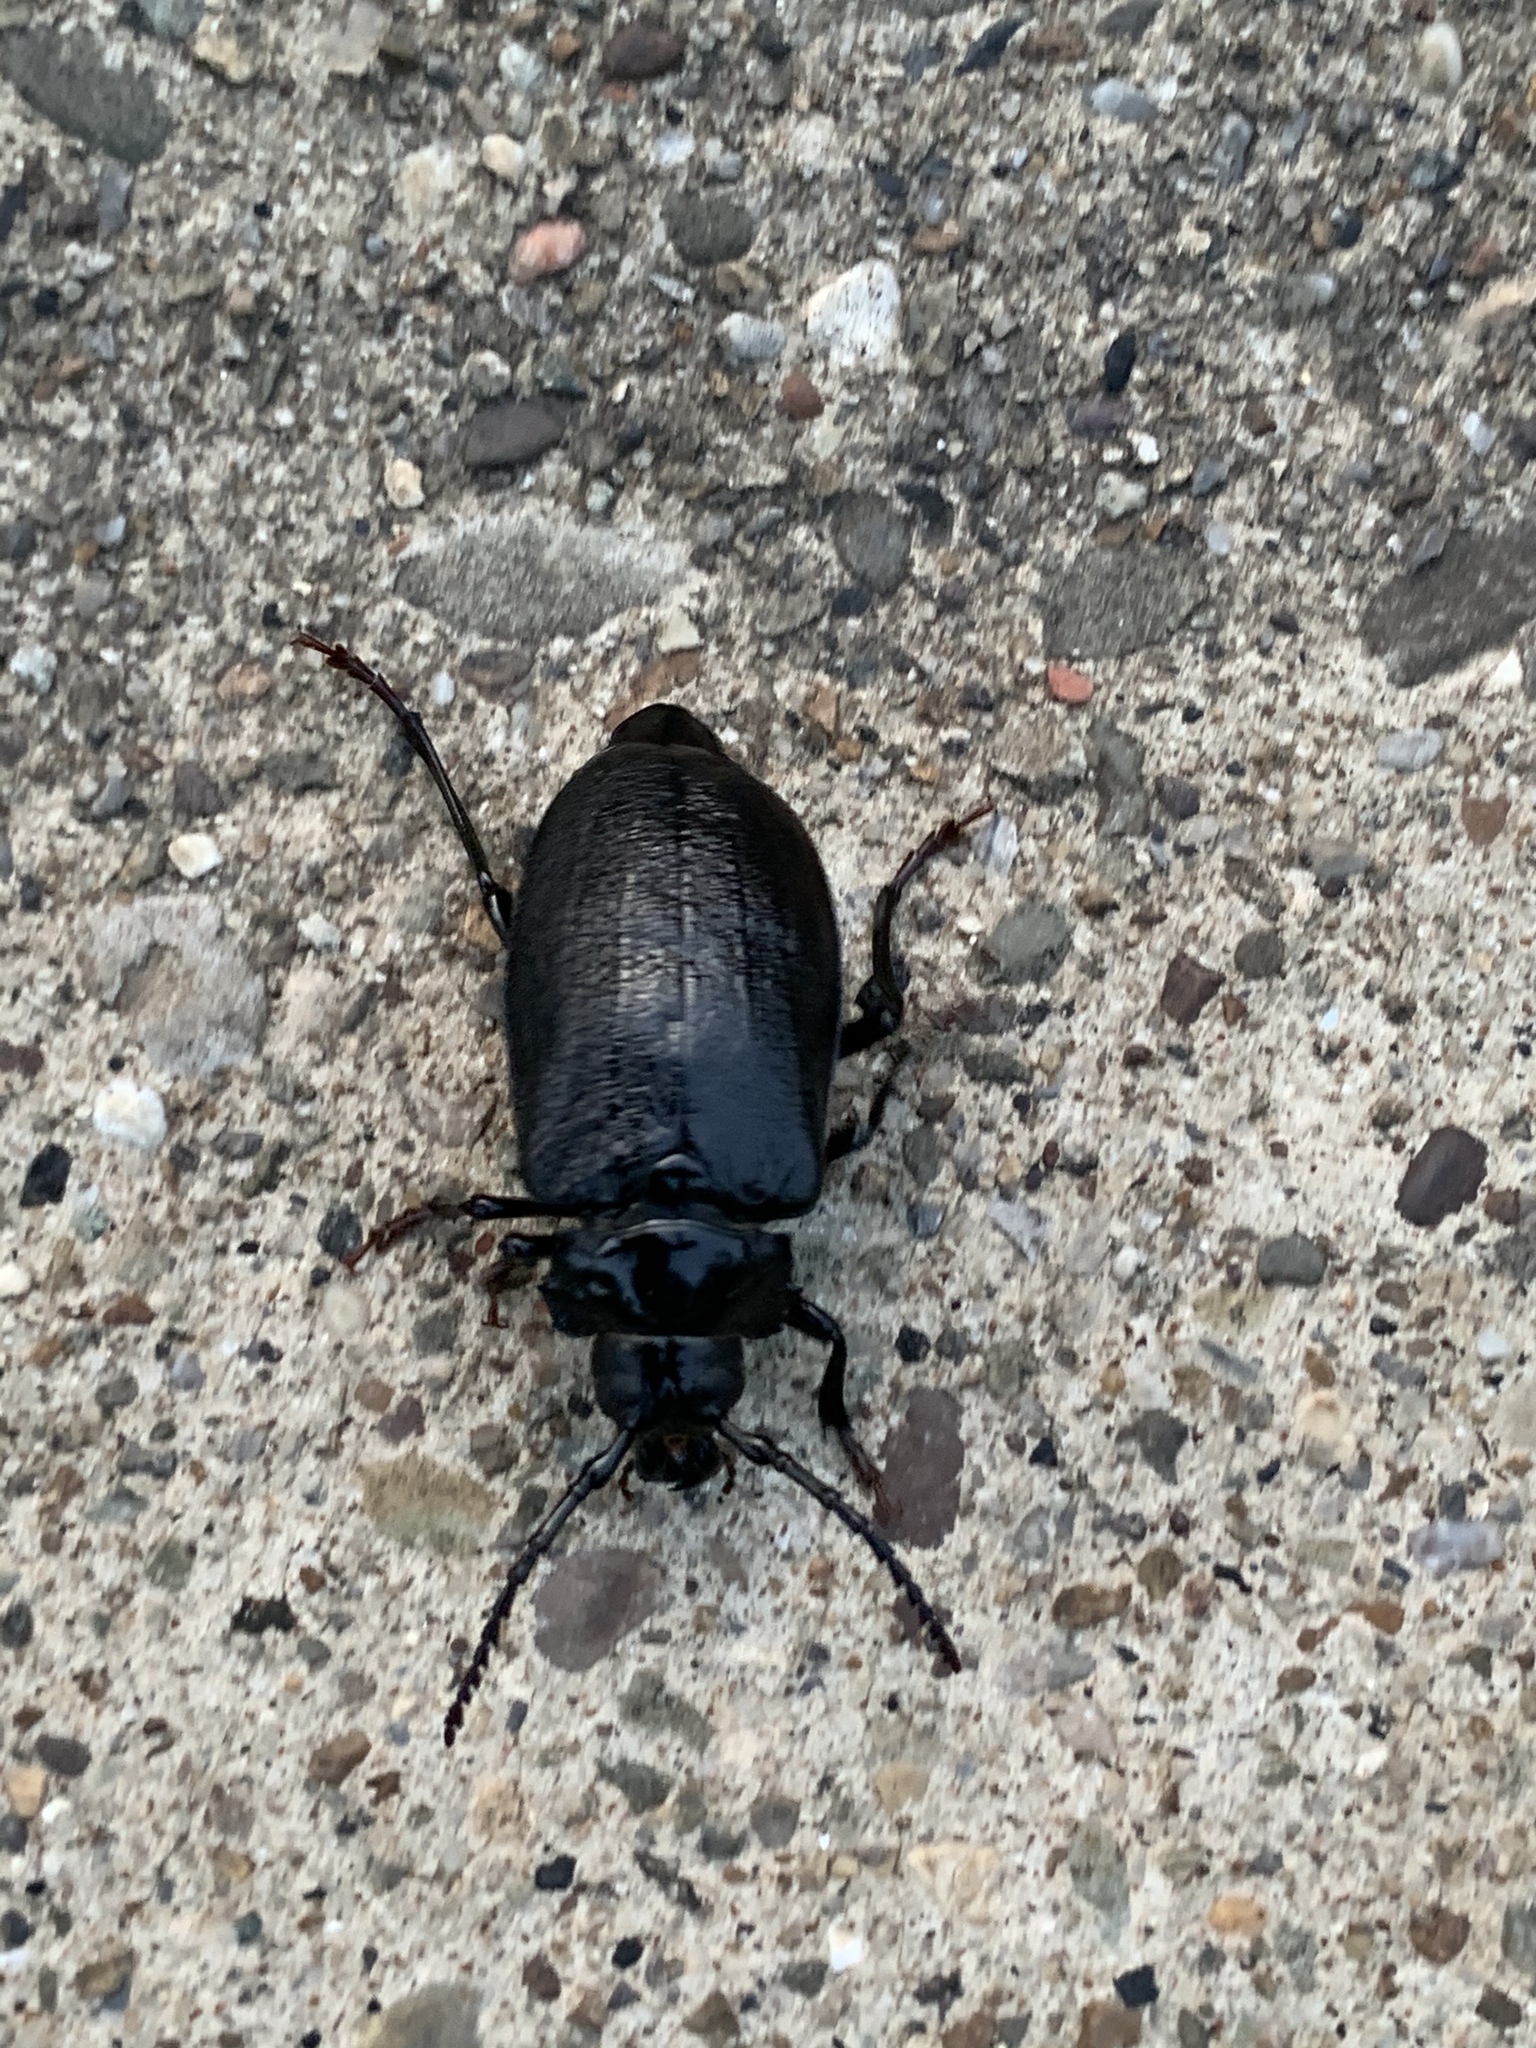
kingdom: Animalia
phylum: Arthropoda
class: Insecta
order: Coleoptera
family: Cerambycidae
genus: Prionus
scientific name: Prionus laticollis
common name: Broad necked prionus
